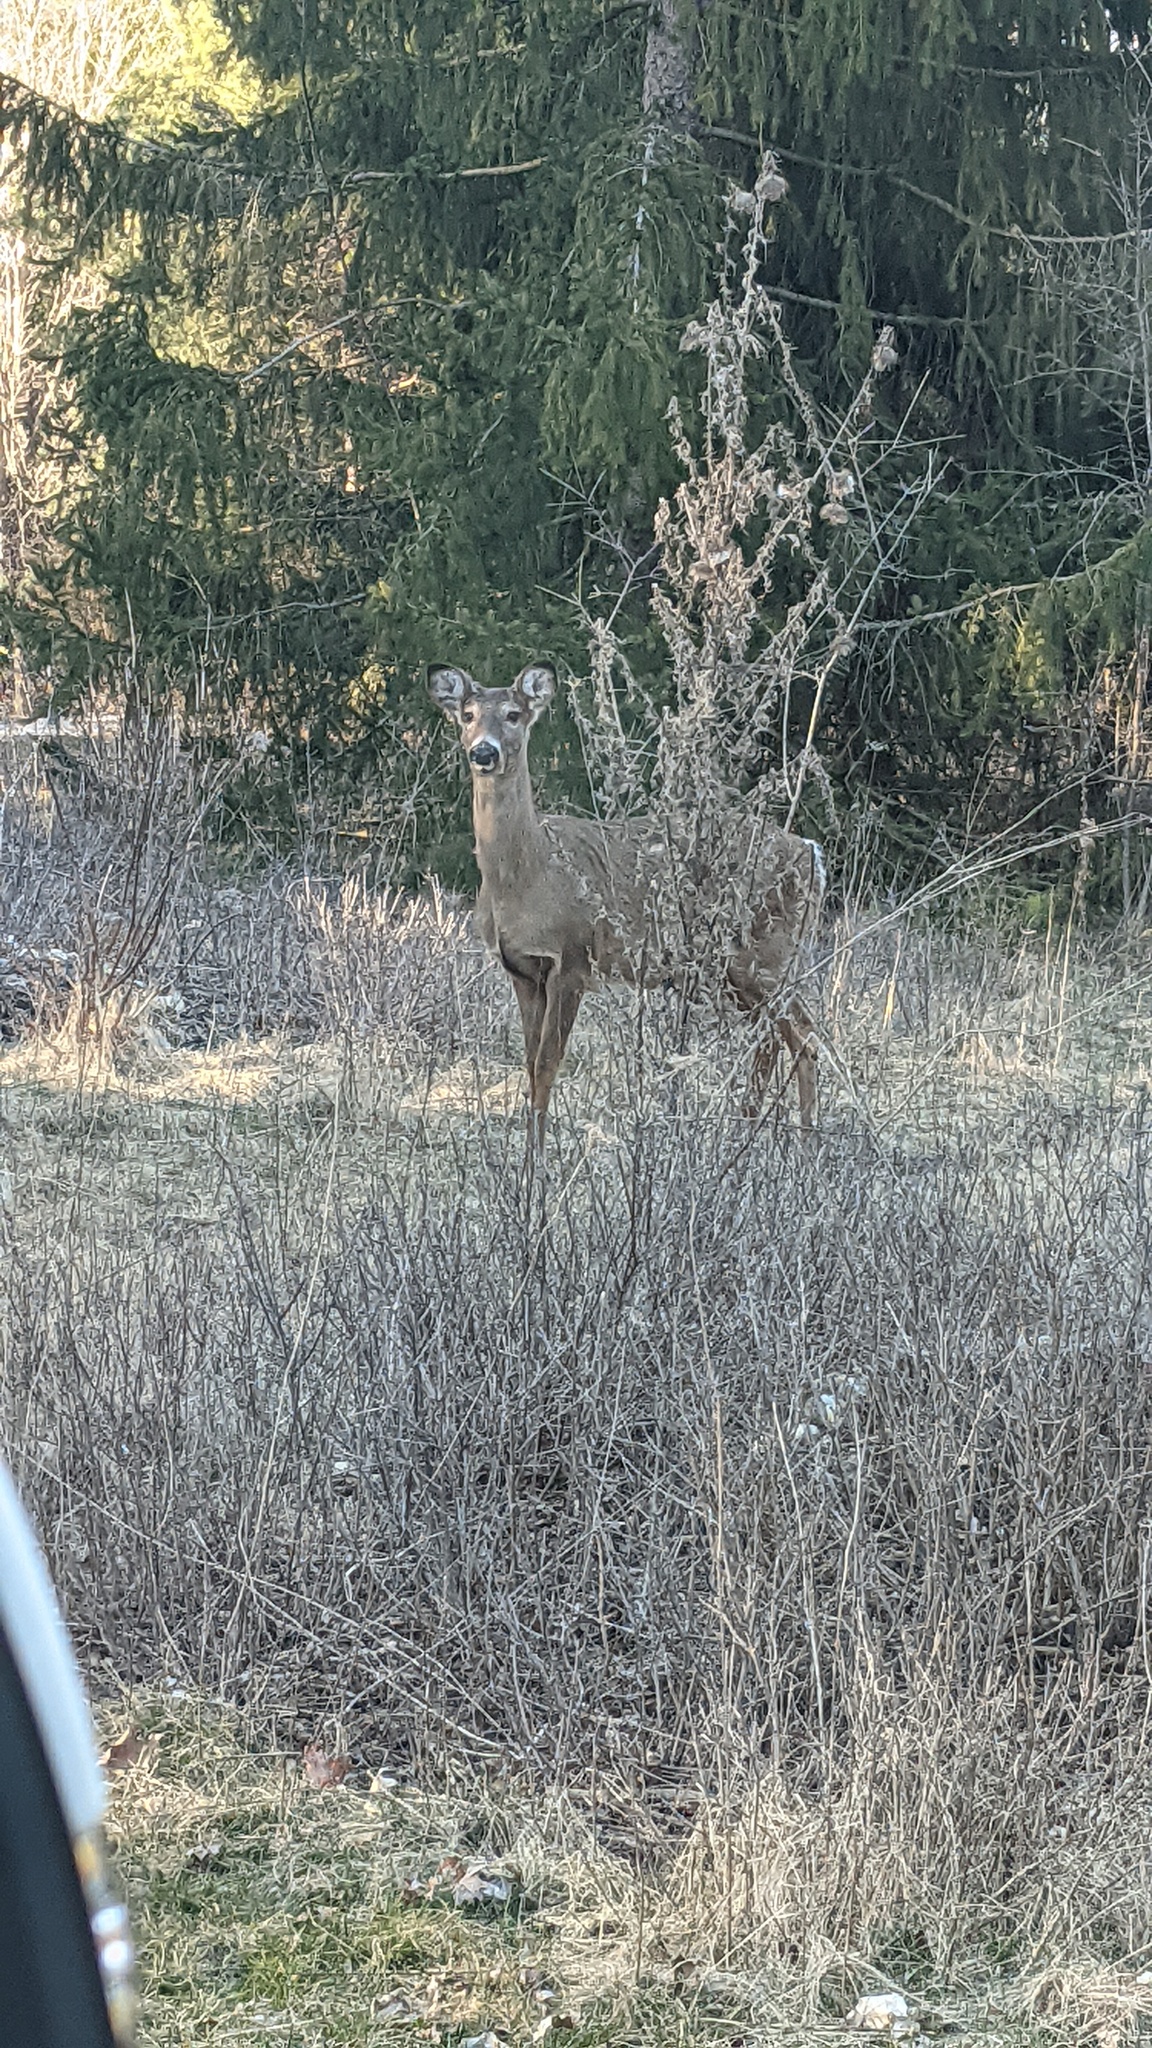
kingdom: Animalia
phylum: Chordata
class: Mammalia
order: Artiodactyla
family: Cervidae
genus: Odocoileus
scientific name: Odocoileus virginianus
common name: White-tailed deer
